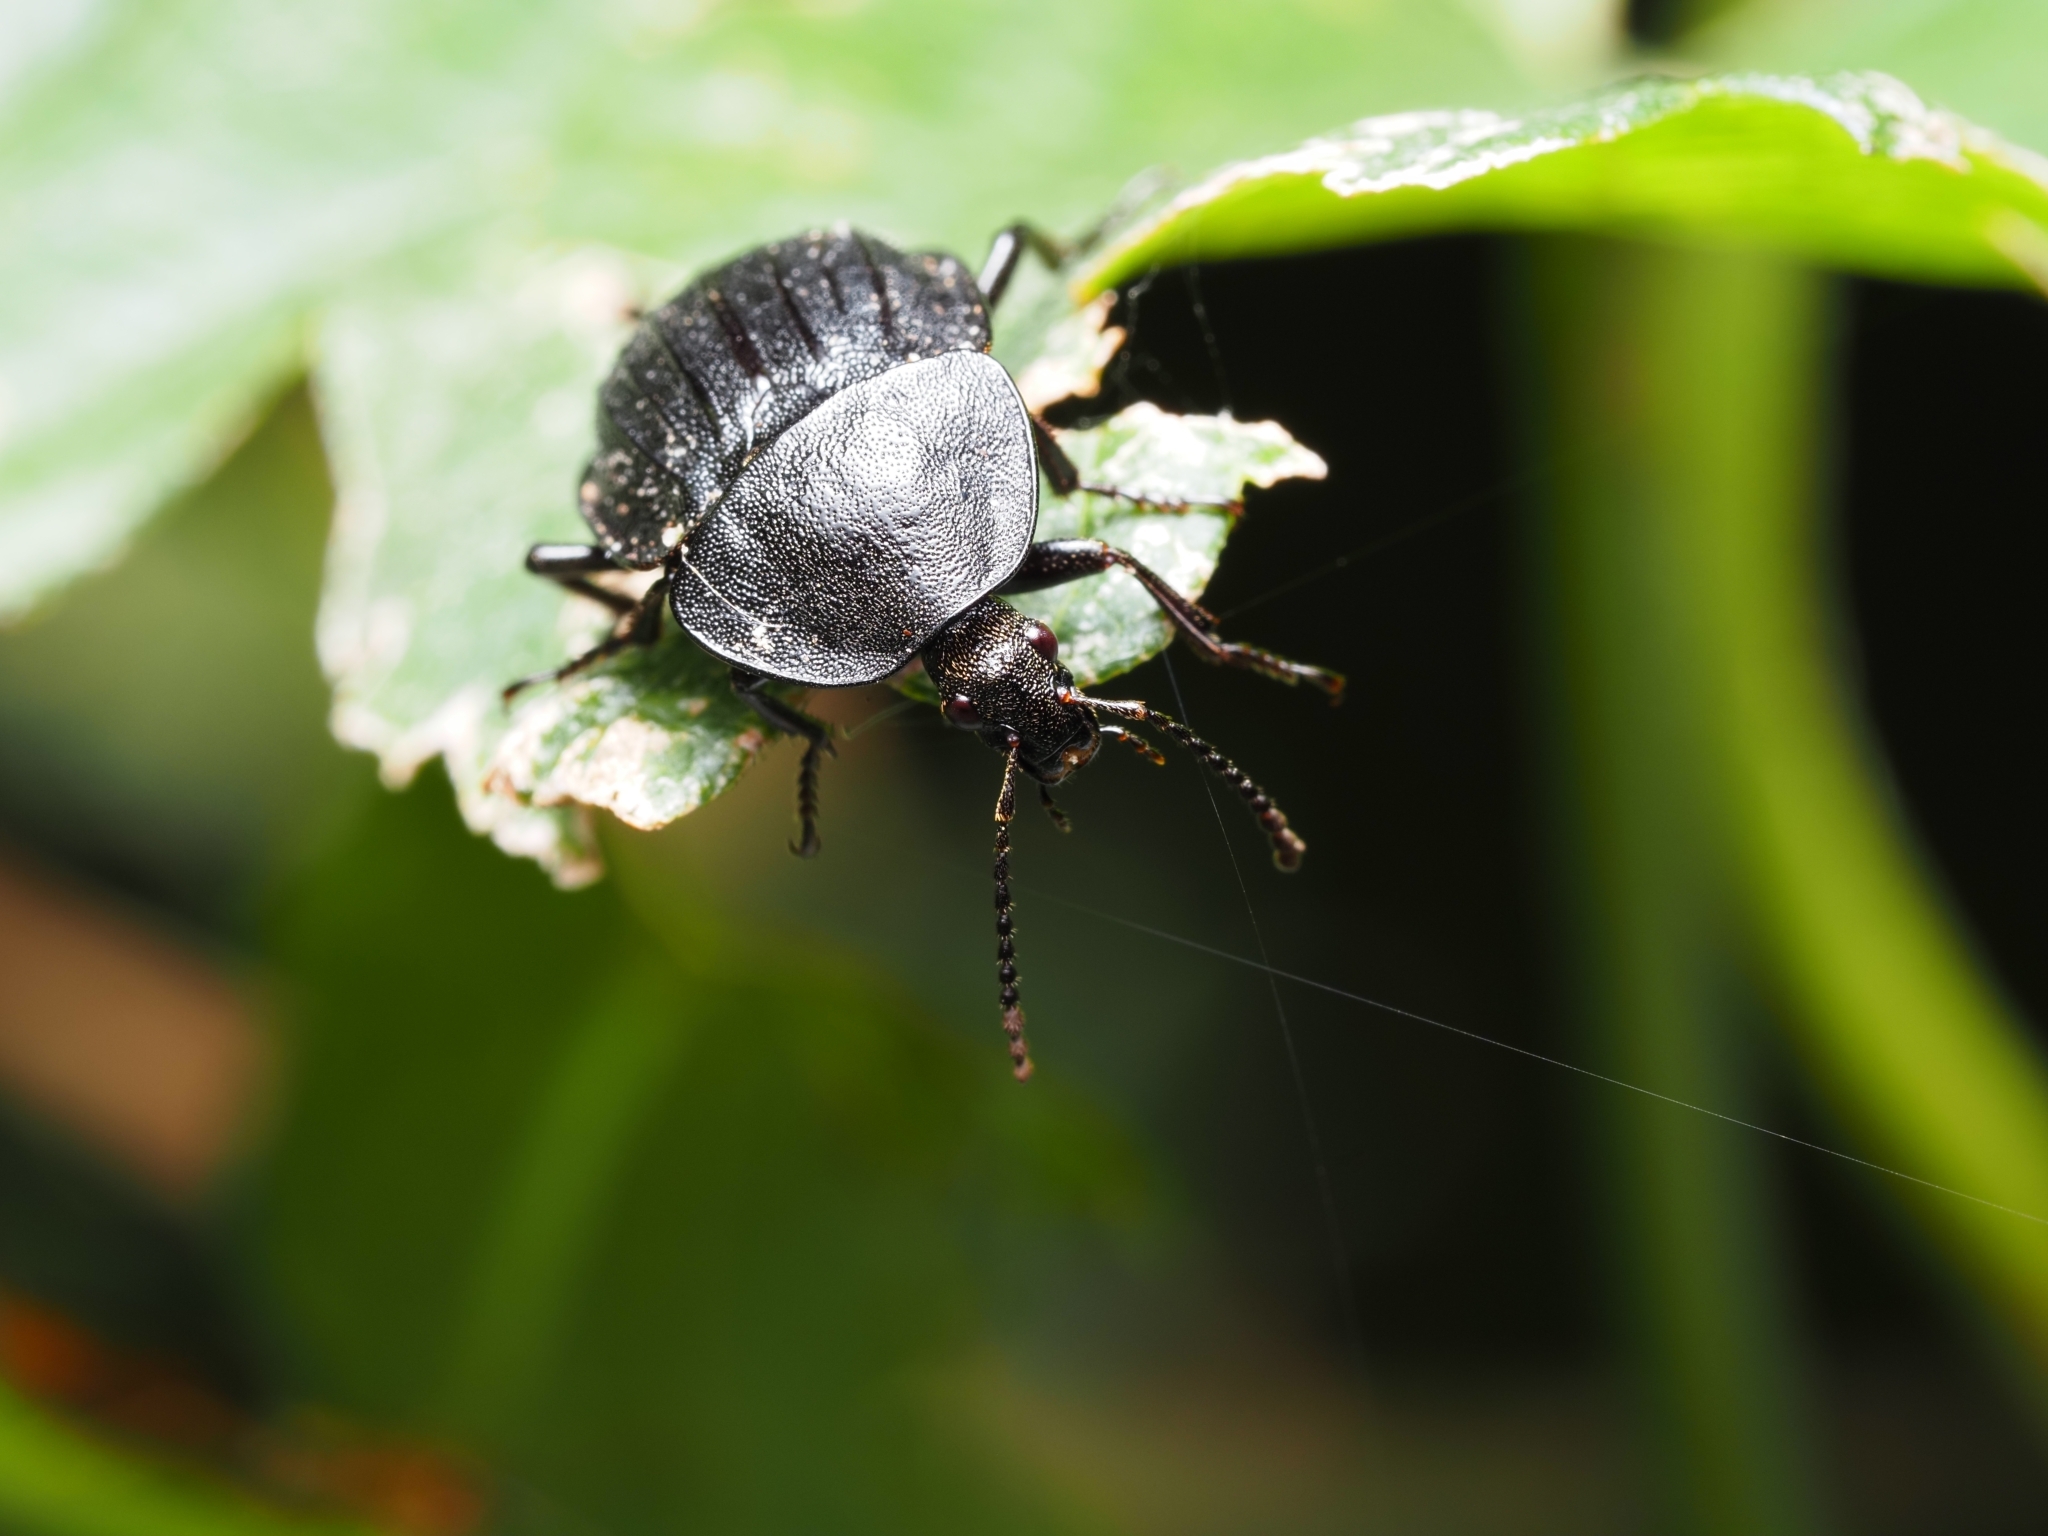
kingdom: Animalia
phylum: Arthropoda
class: Insecta
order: Coleoptera
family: Staphylinidae
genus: Silpha
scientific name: Silpha atrata
